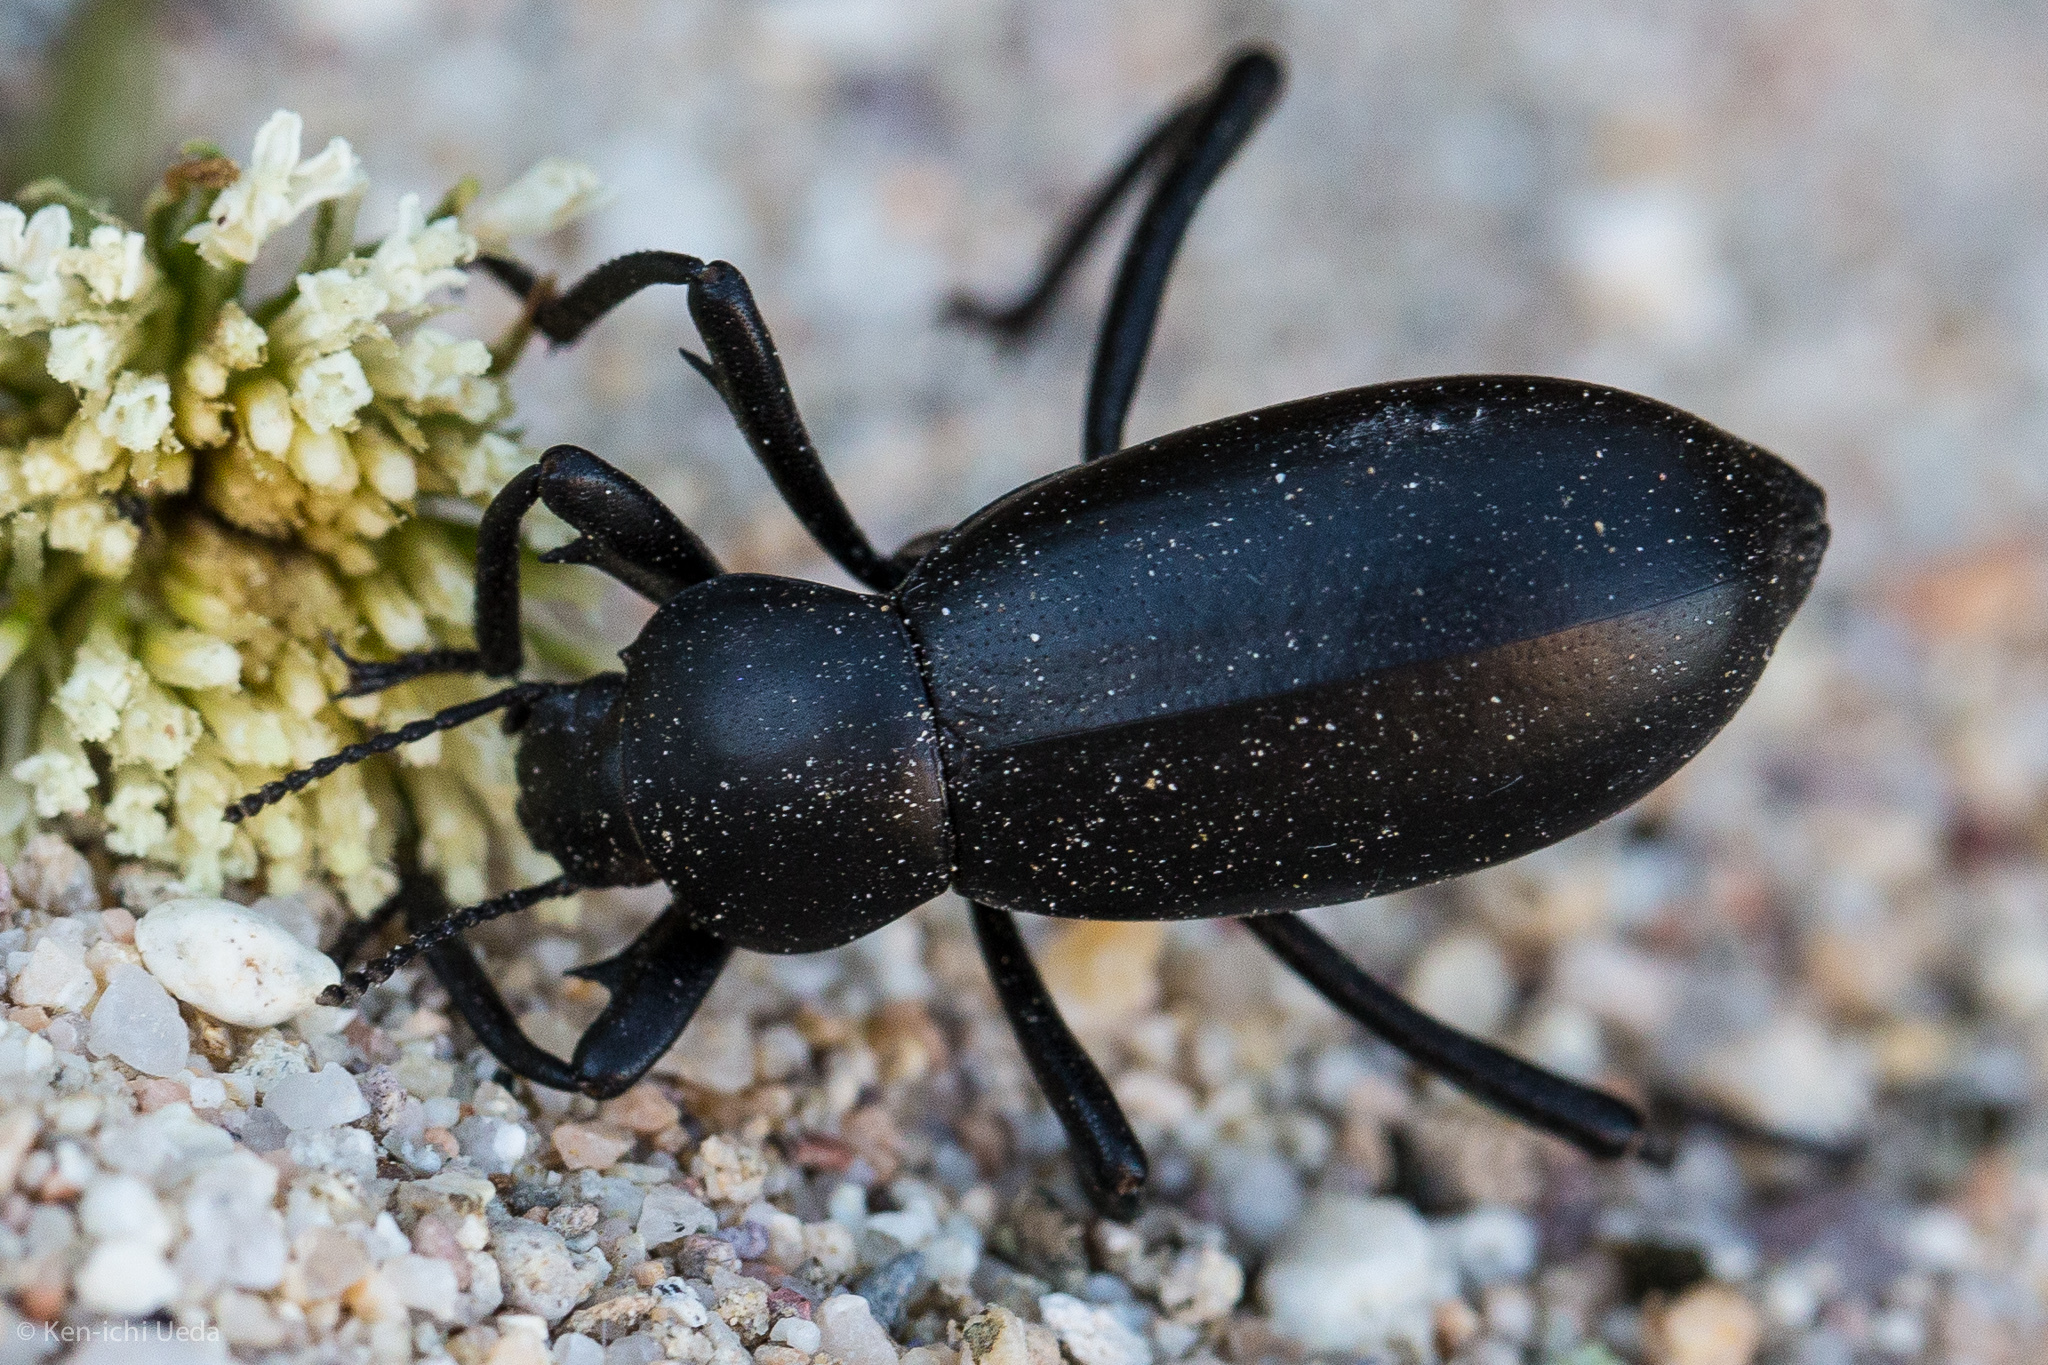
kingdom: Animalia
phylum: Arthropoda
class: Insecta
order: Coleoptera
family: Tenebrionidae
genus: Eleodes
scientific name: Eleodes armata
